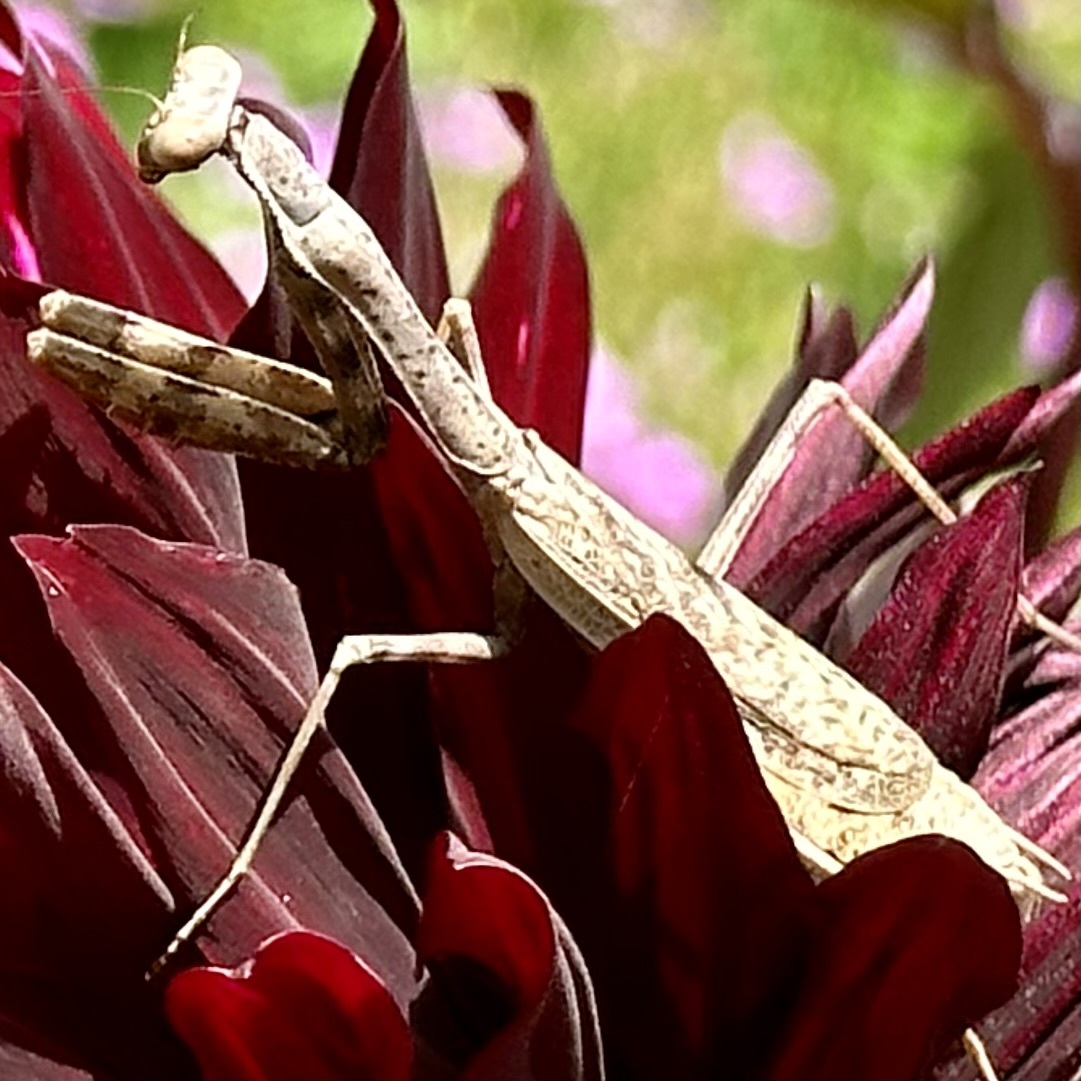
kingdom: Animalia
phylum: Arthropoda
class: Insecta
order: Mantodea
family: Mantidae
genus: Stagmomantis
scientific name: Stagmomantis carolina
